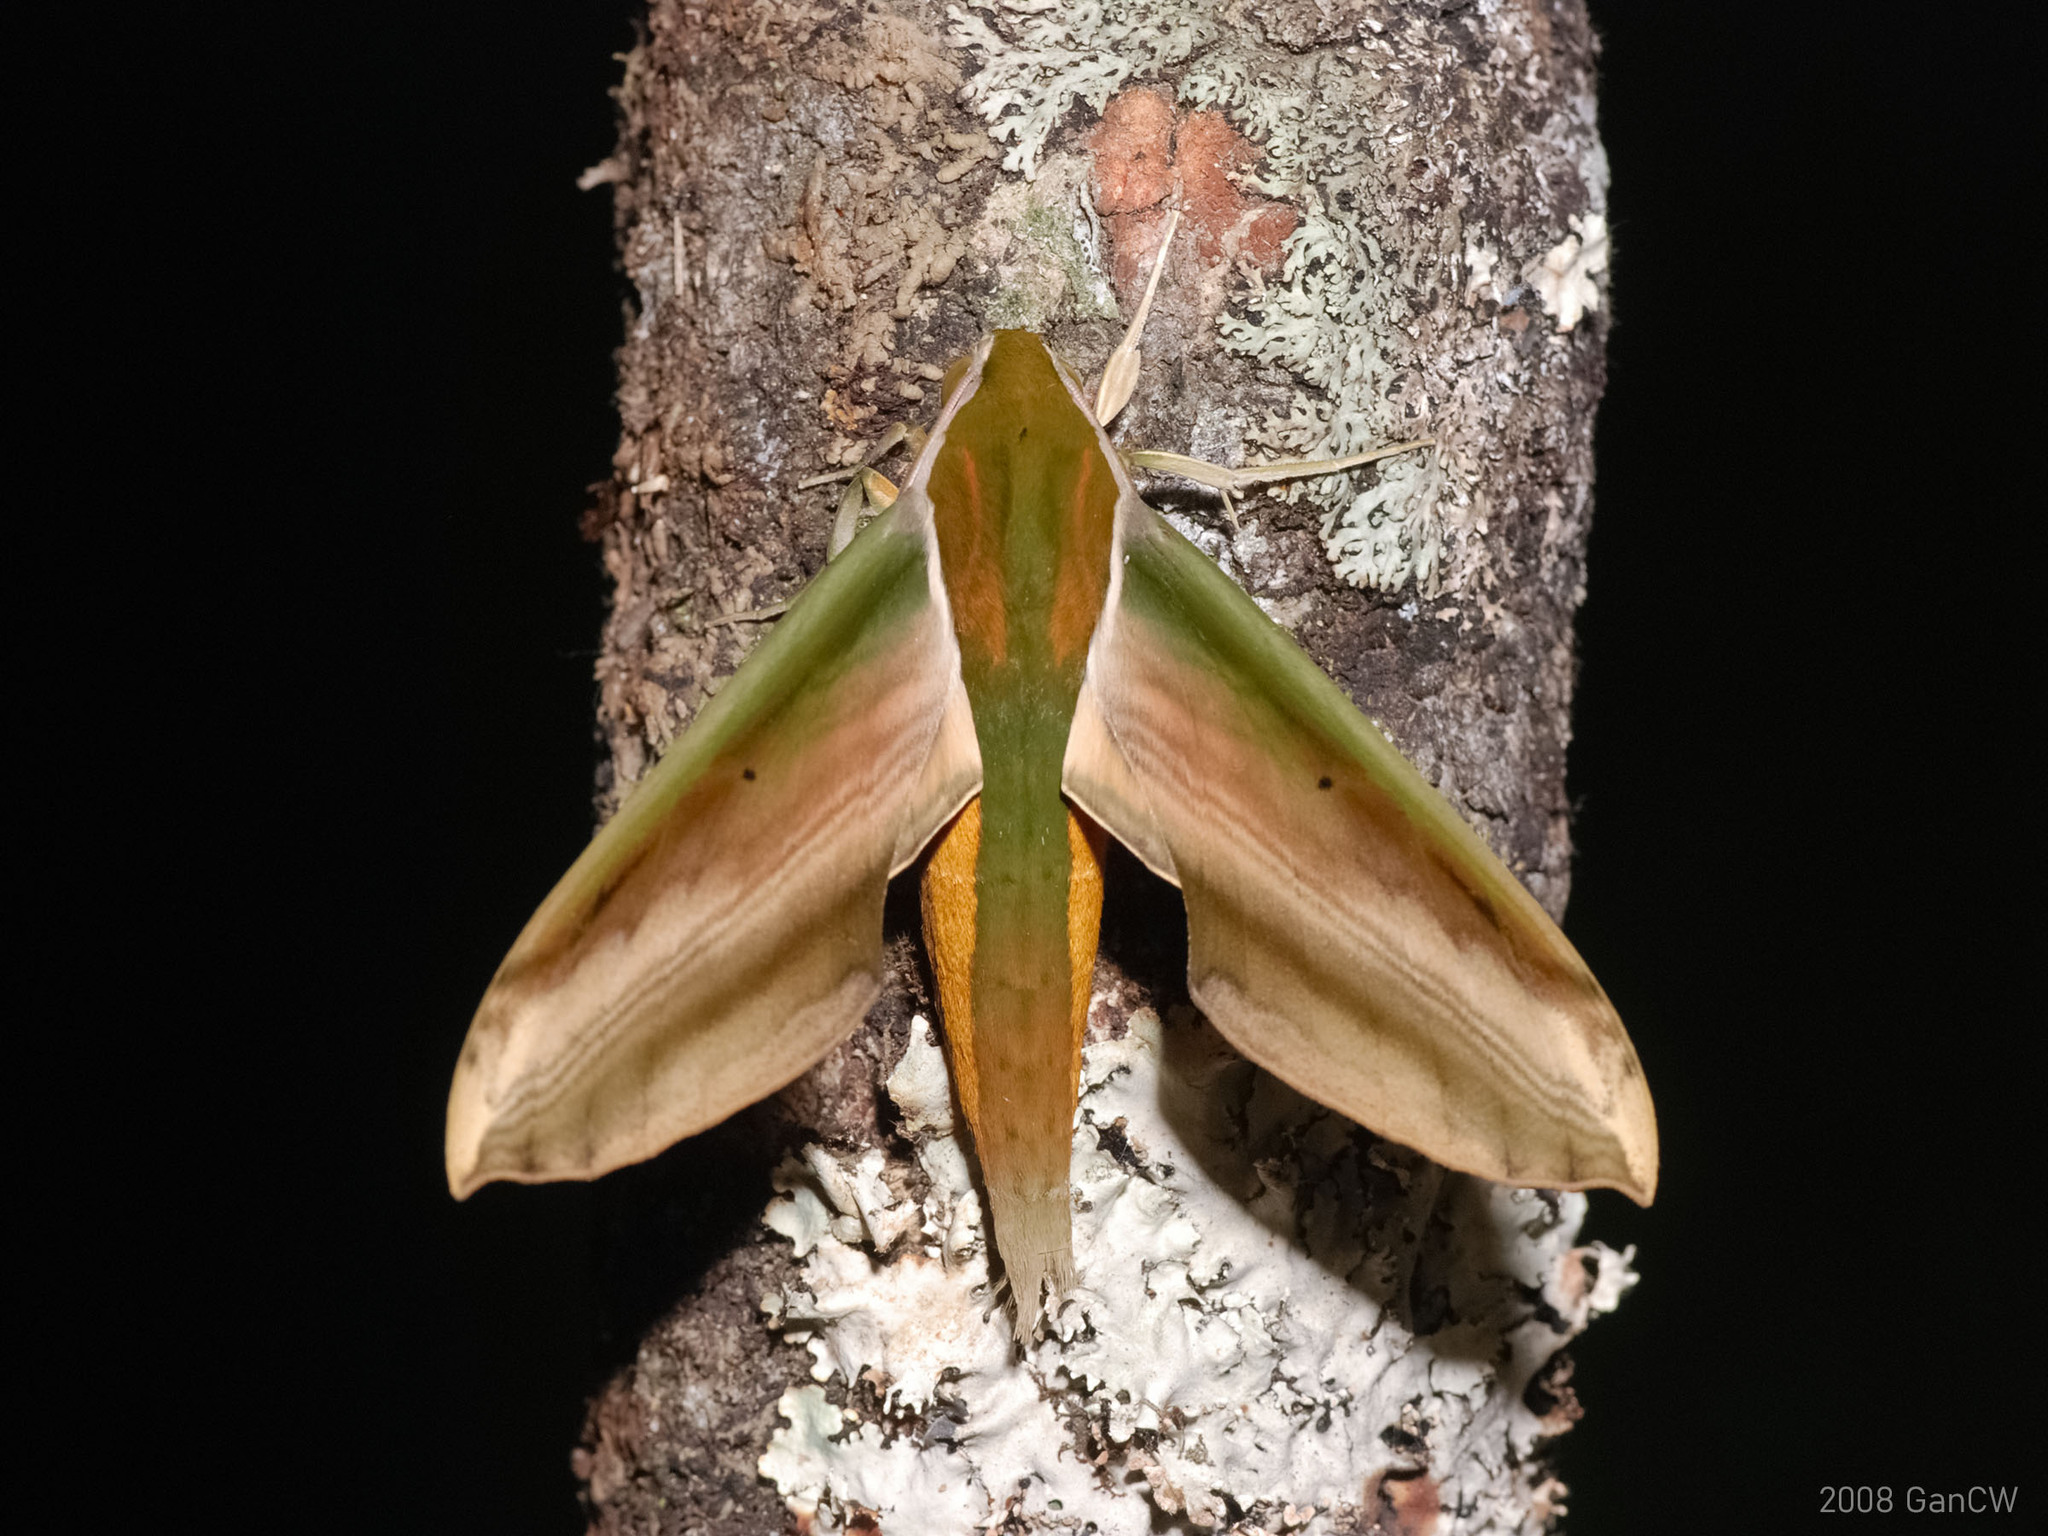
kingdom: Animalia
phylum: Arthropoda
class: Insecta
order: Lepidoptera
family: Sphingidae
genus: Theretra
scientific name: Theretra nessus
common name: Yam hawk moth
